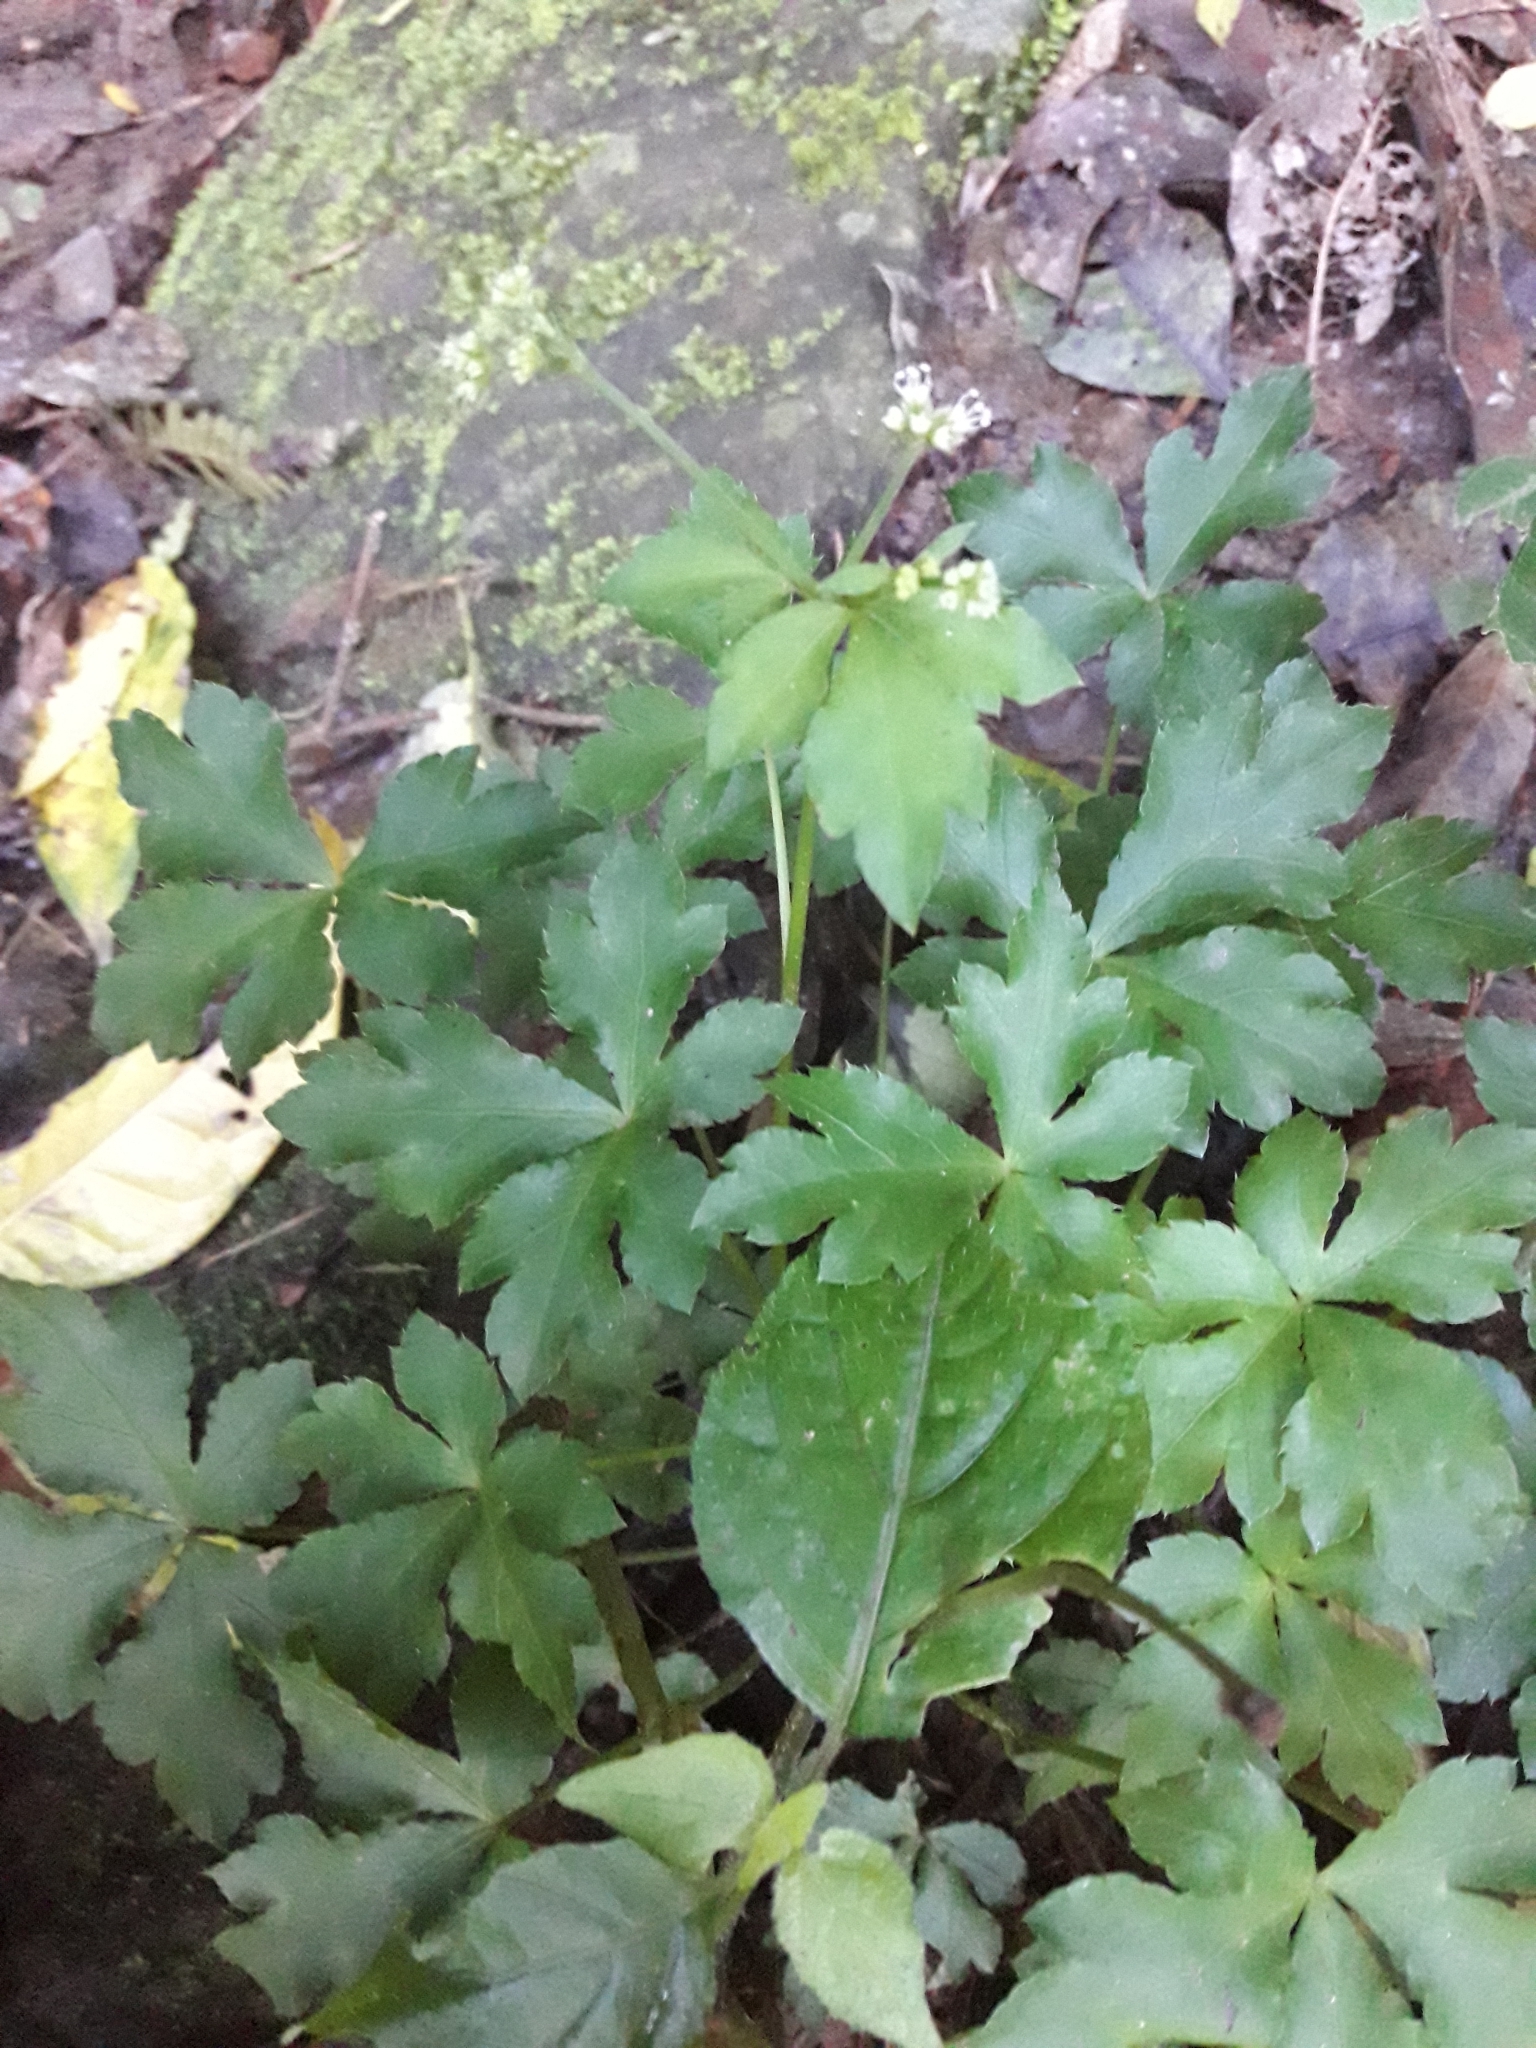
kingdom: Plantae
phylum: Tracheophyta
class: Magnoliopsida
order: Apiales
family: Apiaceae
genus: Sanicula
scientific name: Sanicula elata
